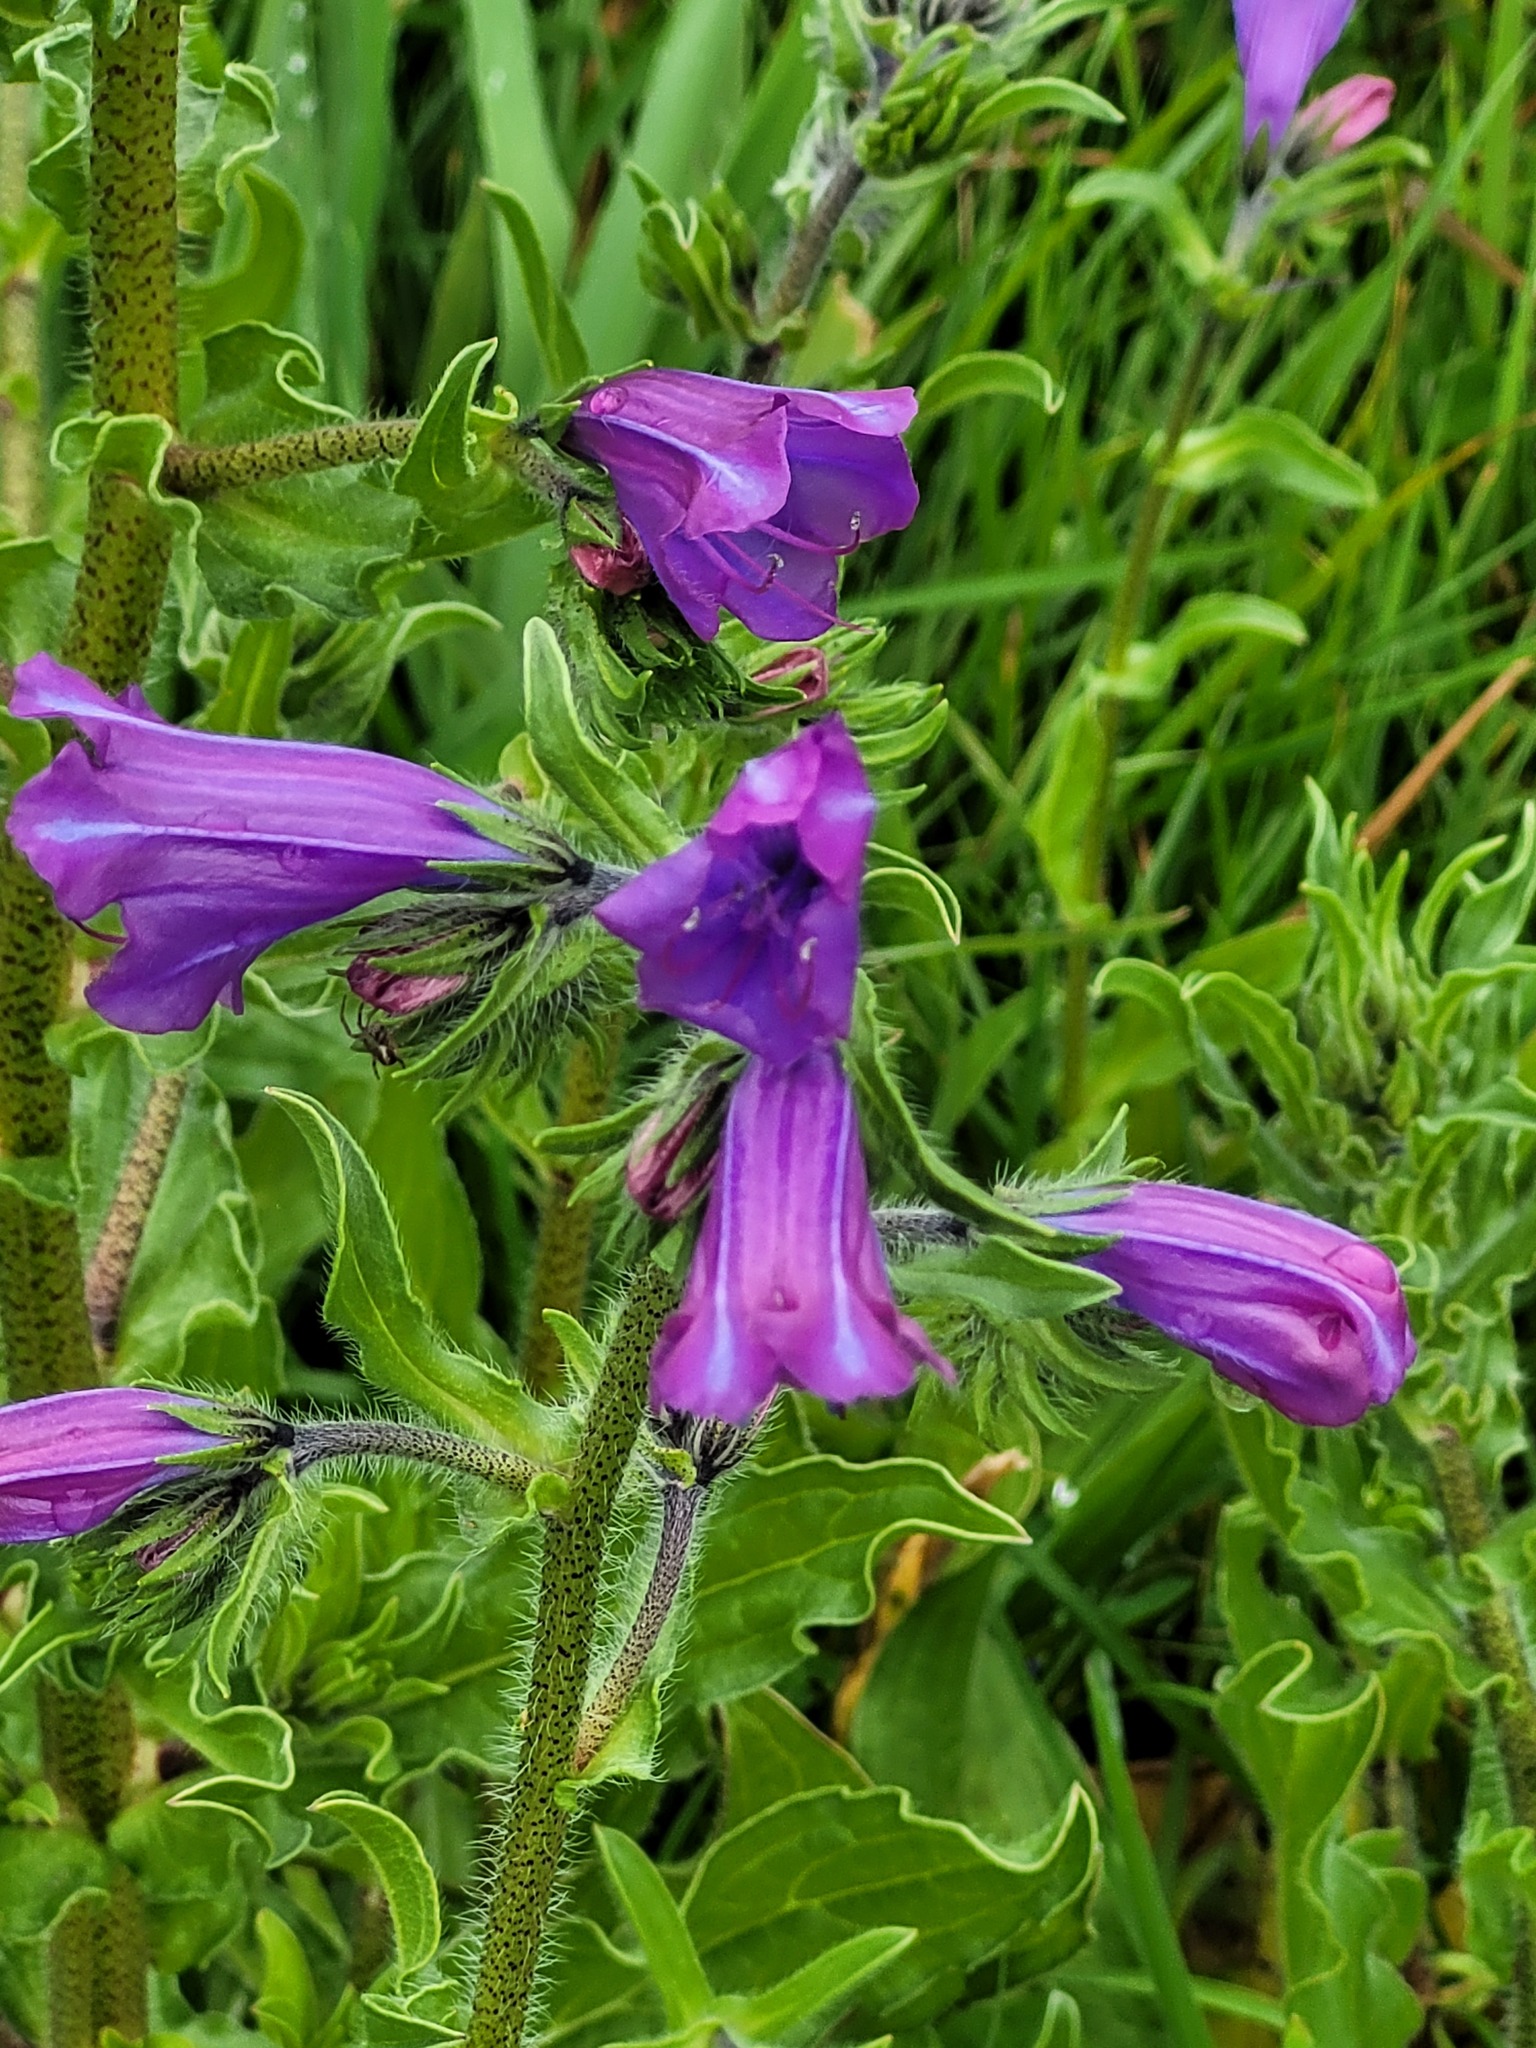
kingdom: Plantae
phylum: Tracheophyta
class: Magnoliopsida
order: Boraginales
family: Boraginaceae
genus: Echium
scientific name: Echium plantagineum
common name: Purple viper's-bugloss
